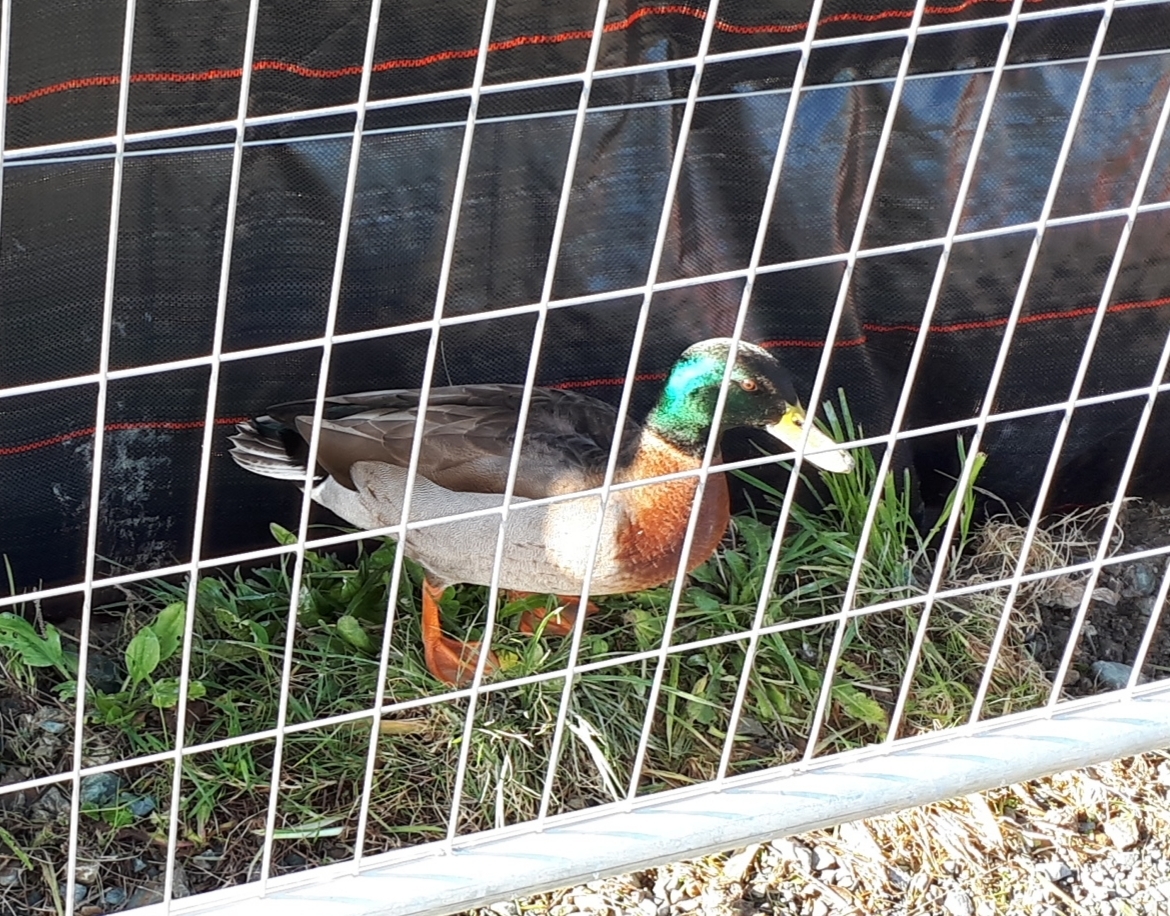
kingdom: Animalia
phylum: Chordata
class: Aves
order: Anseriformes
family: Anatidae
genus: Anas
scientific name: Anas platyrhynchos
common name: Mallard
